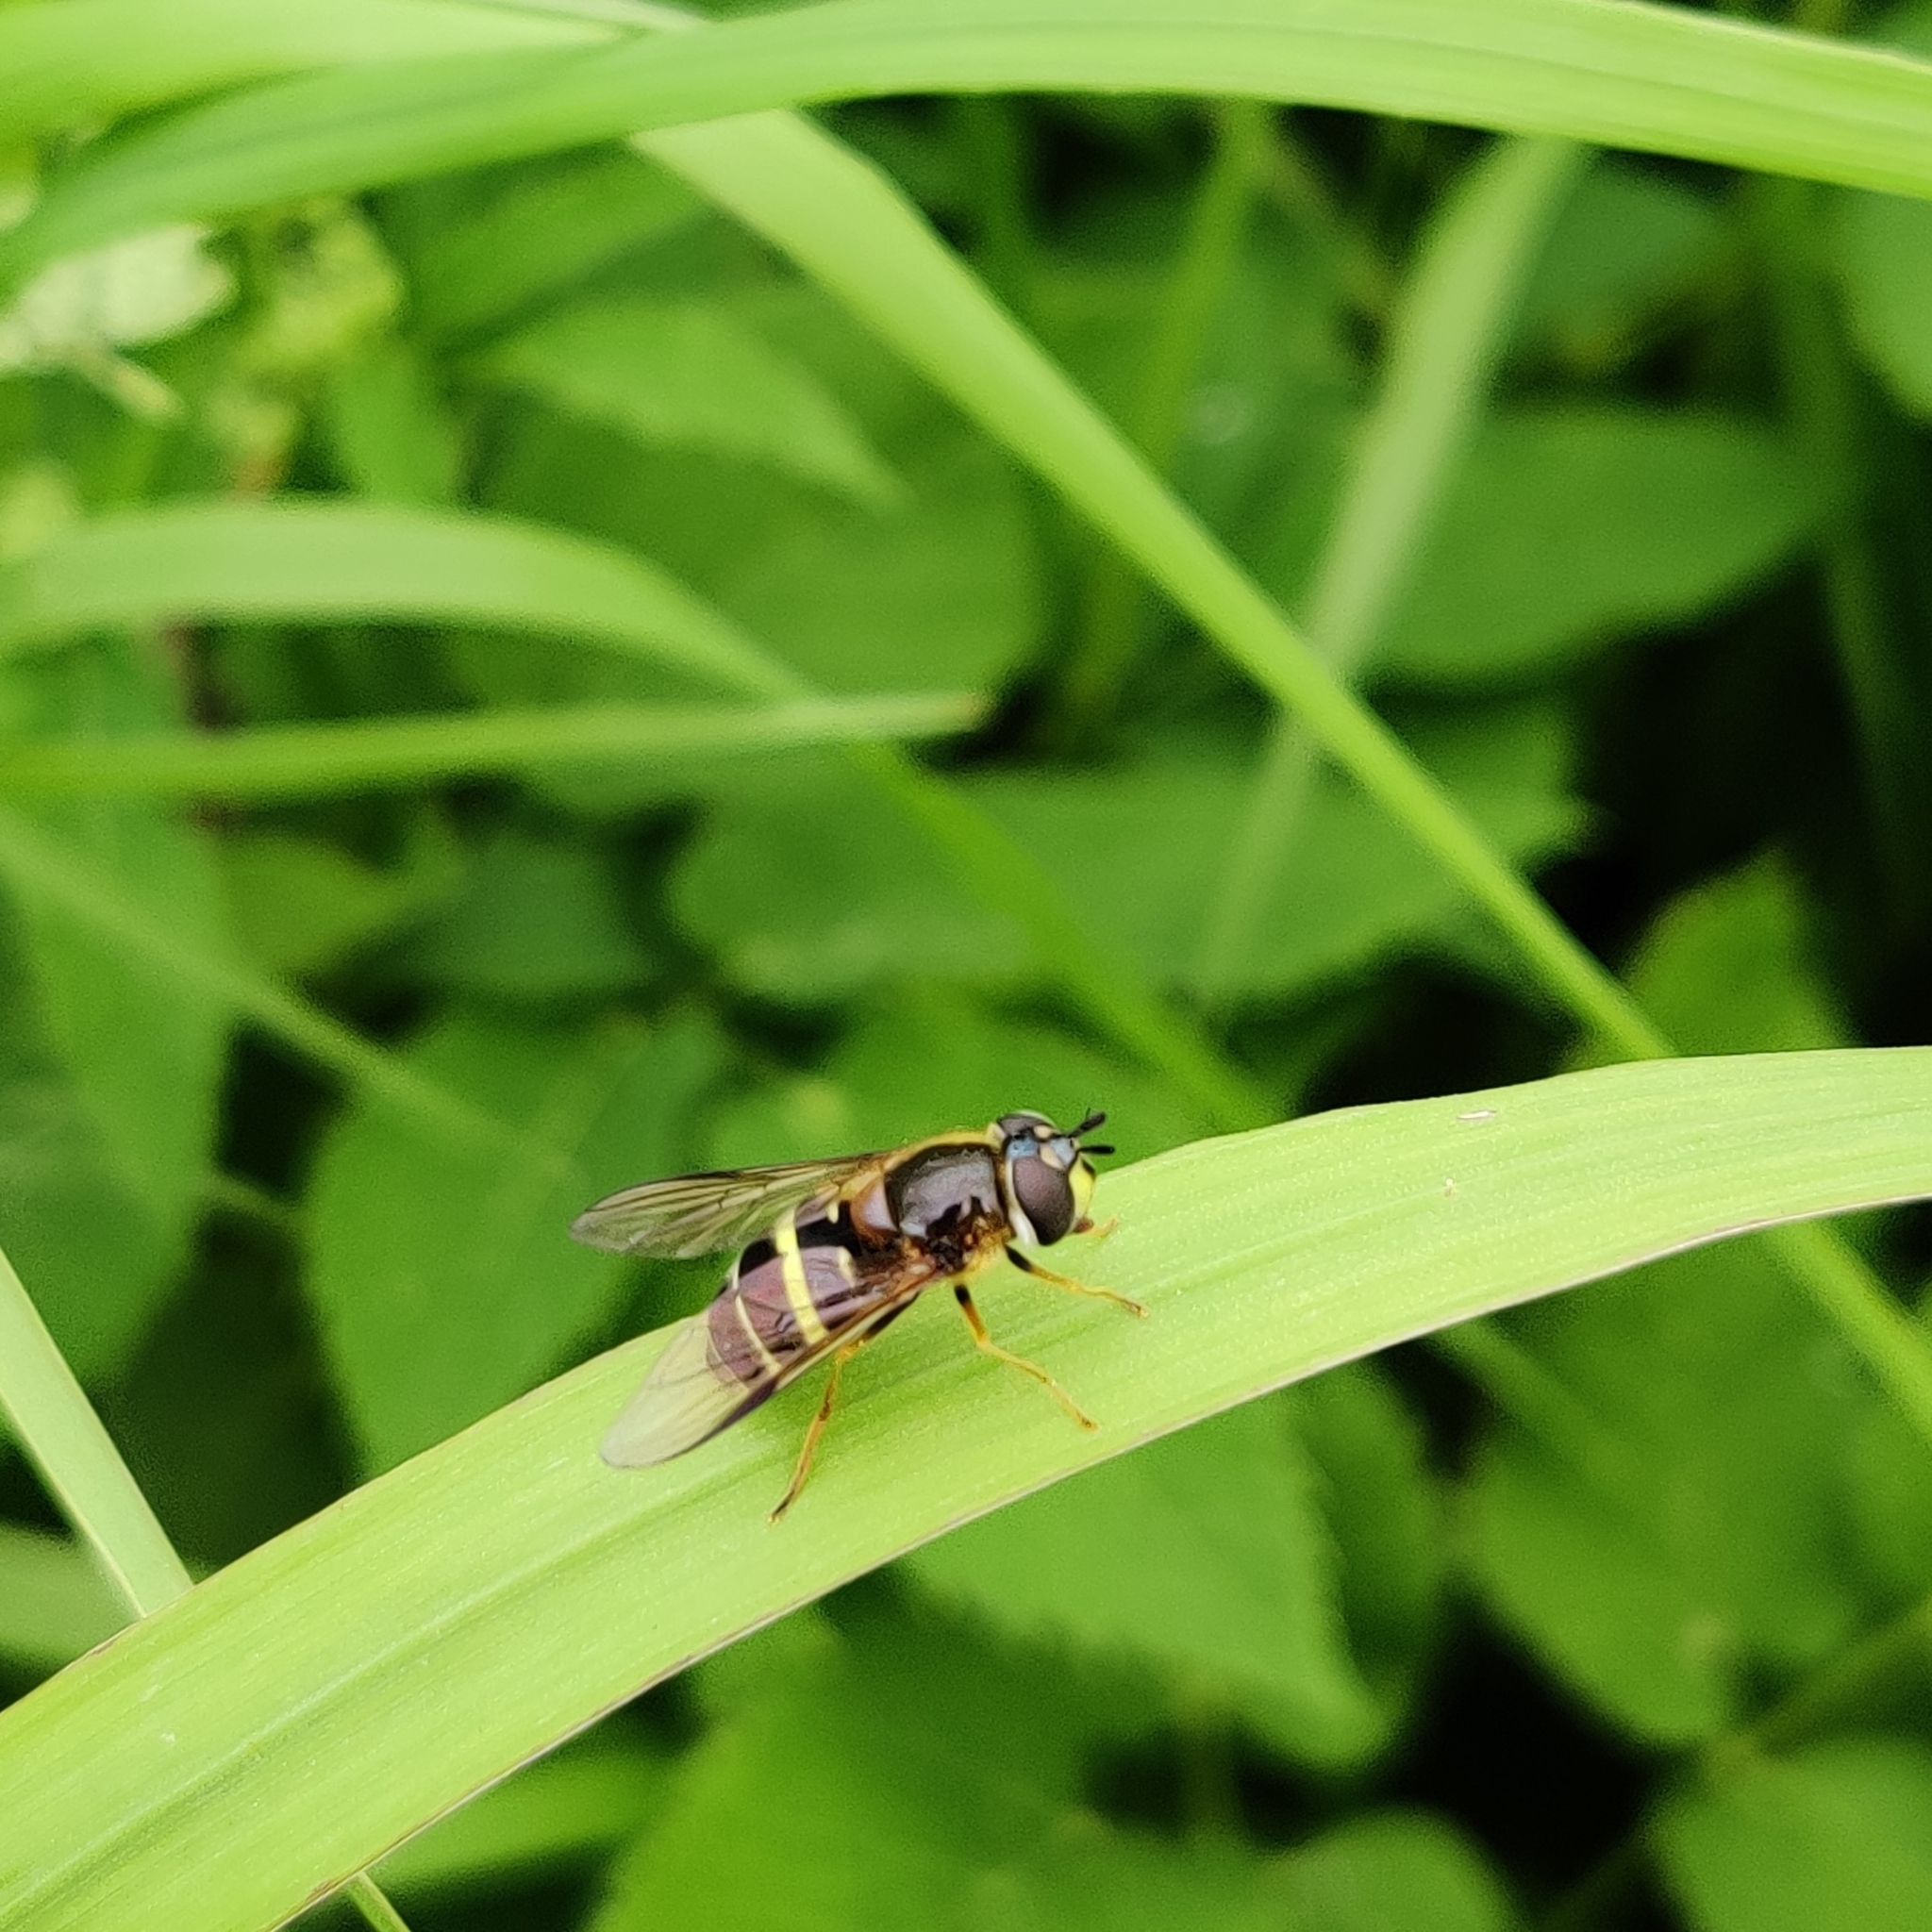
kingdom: Animalia
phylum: Arthropoda
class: Insecta
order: Diptera
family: Syrphidae
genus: Dasysyrphus
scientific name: Dasysyrphus tricinctus
